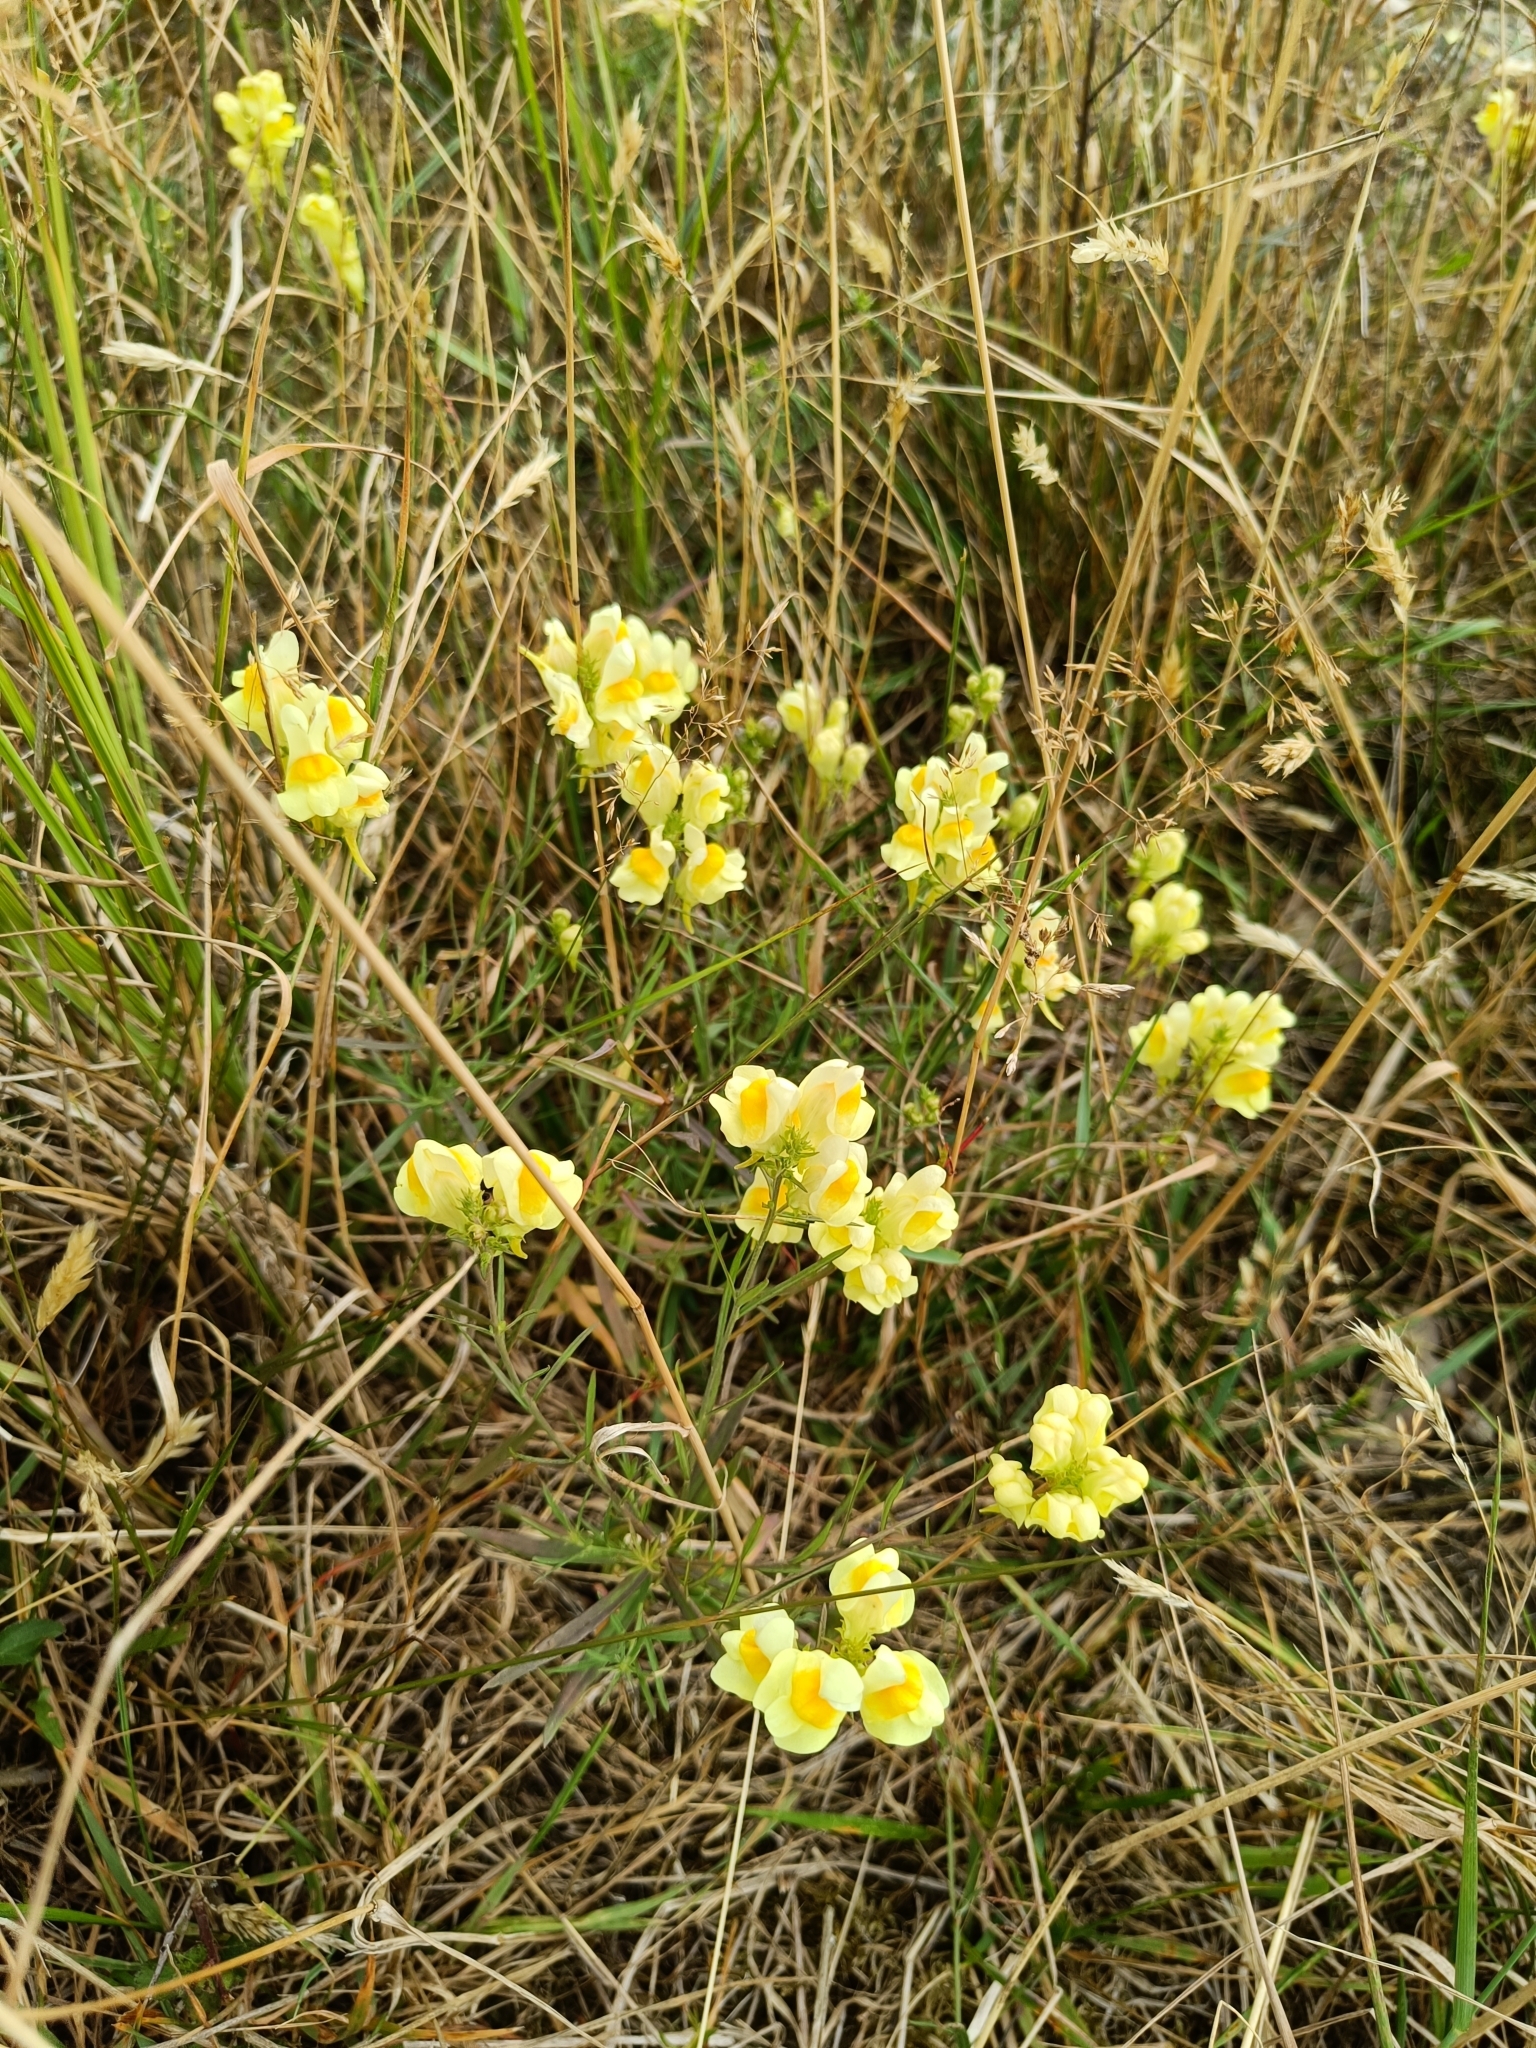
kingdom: Plantae
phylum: Tracheophyta
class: Magnoliopsida
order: Lamiales
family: Plantaginaceae
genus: Linaria
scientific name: Linaria vulgaris
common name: Butter and eggs
